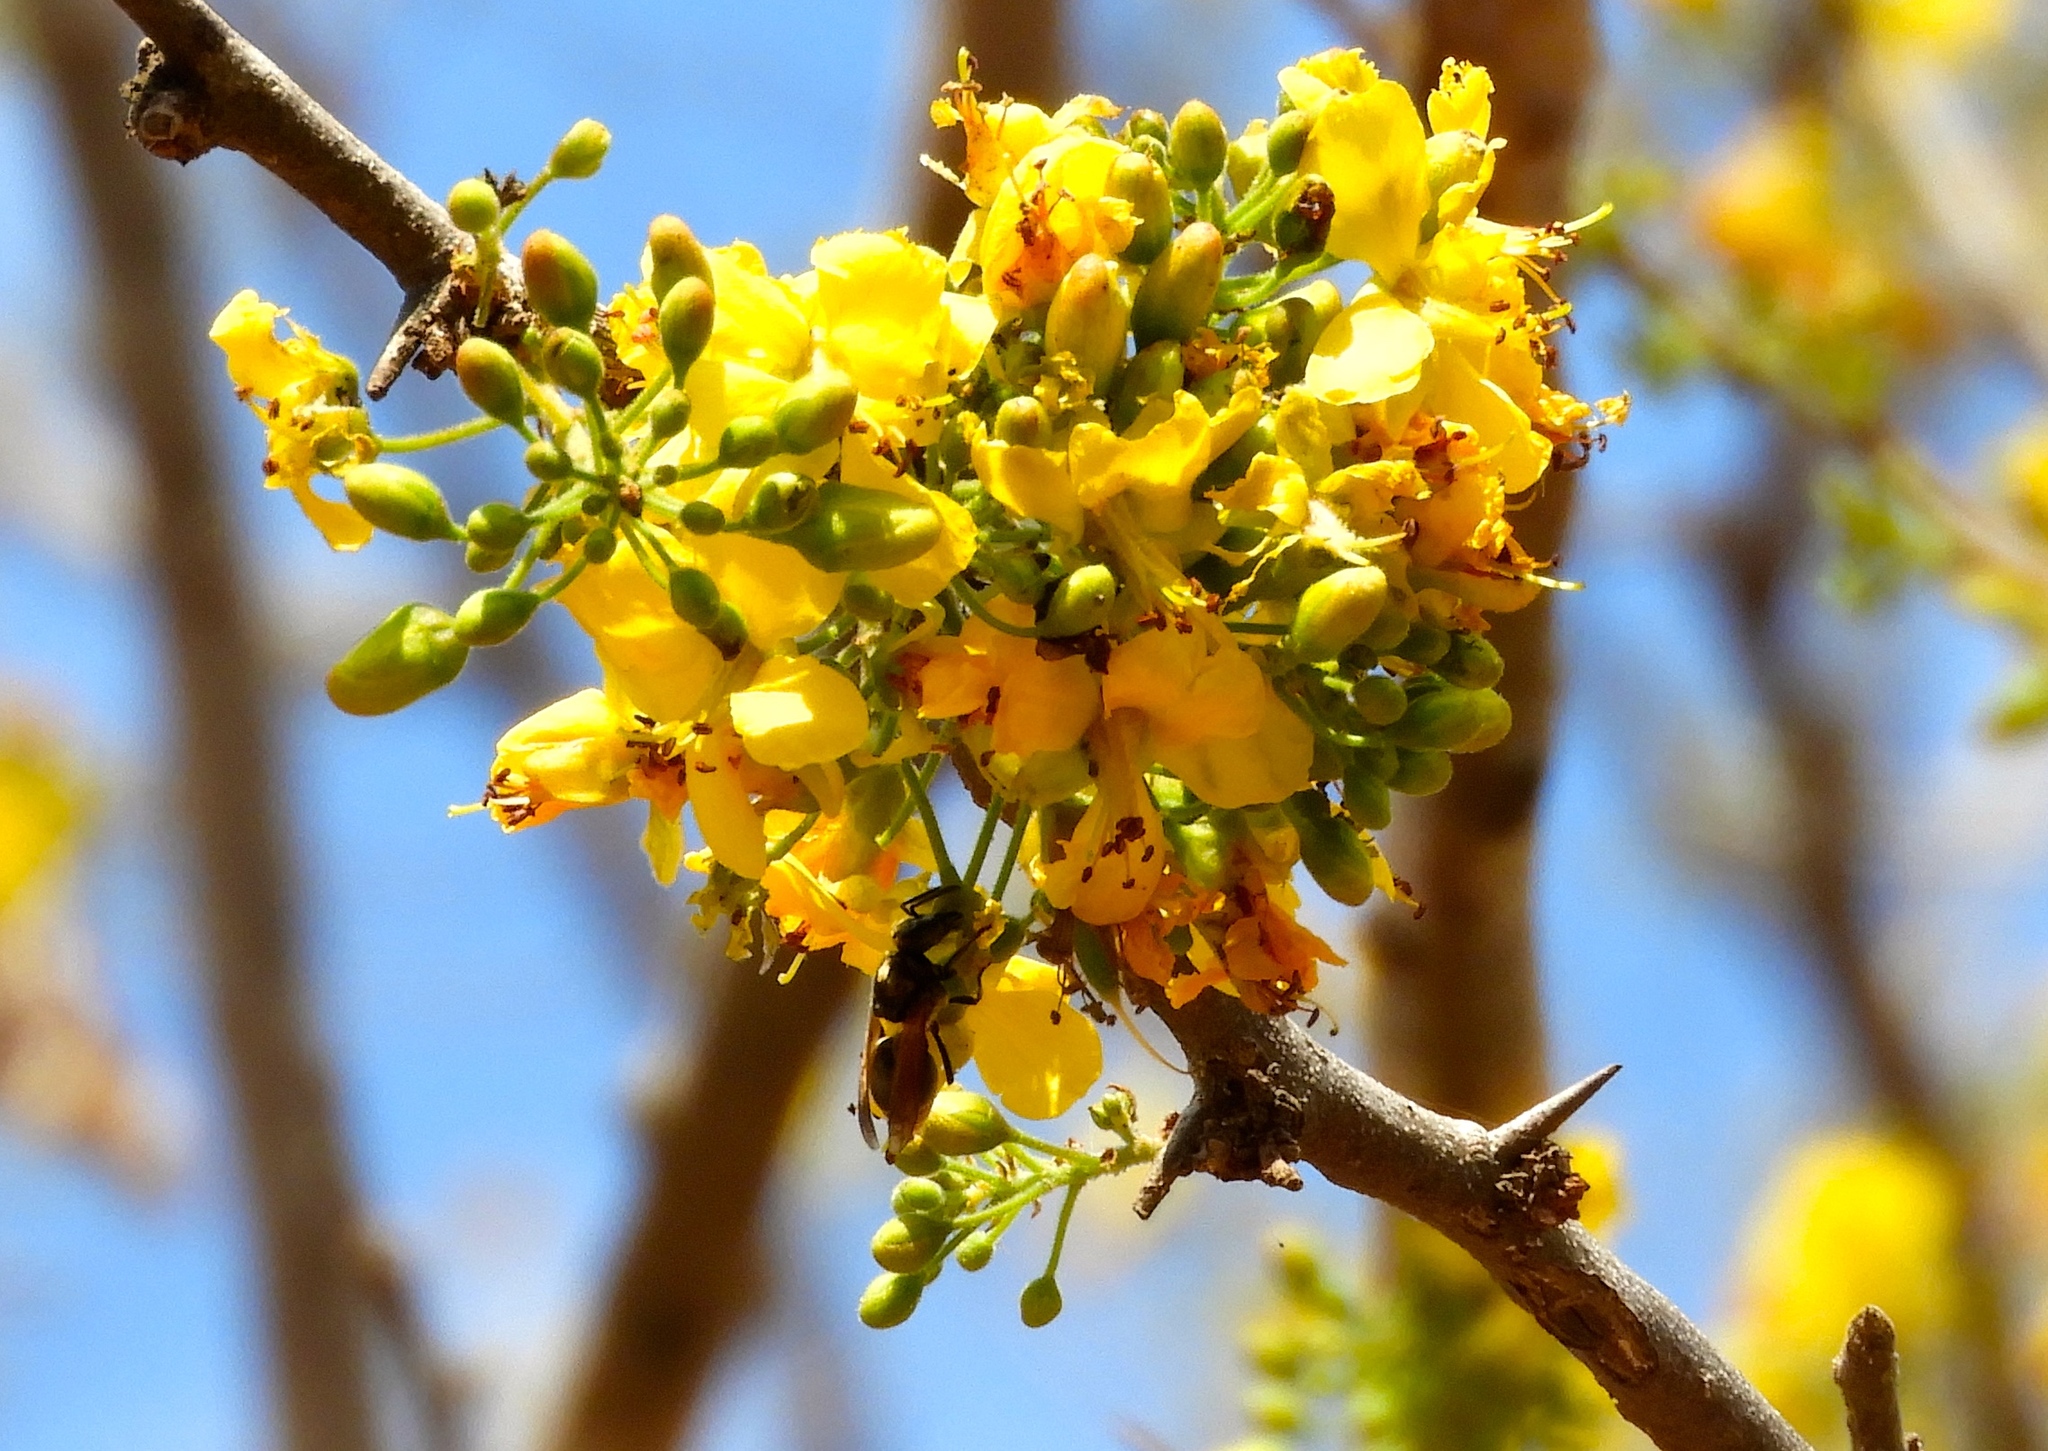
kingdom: Plantae
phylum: Tracheophyta
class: Magnoliopsida
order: Fabales
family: Fabaceae
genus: Haematoxylum
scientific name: Haematoxylum brasiletto
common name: Peachwood
